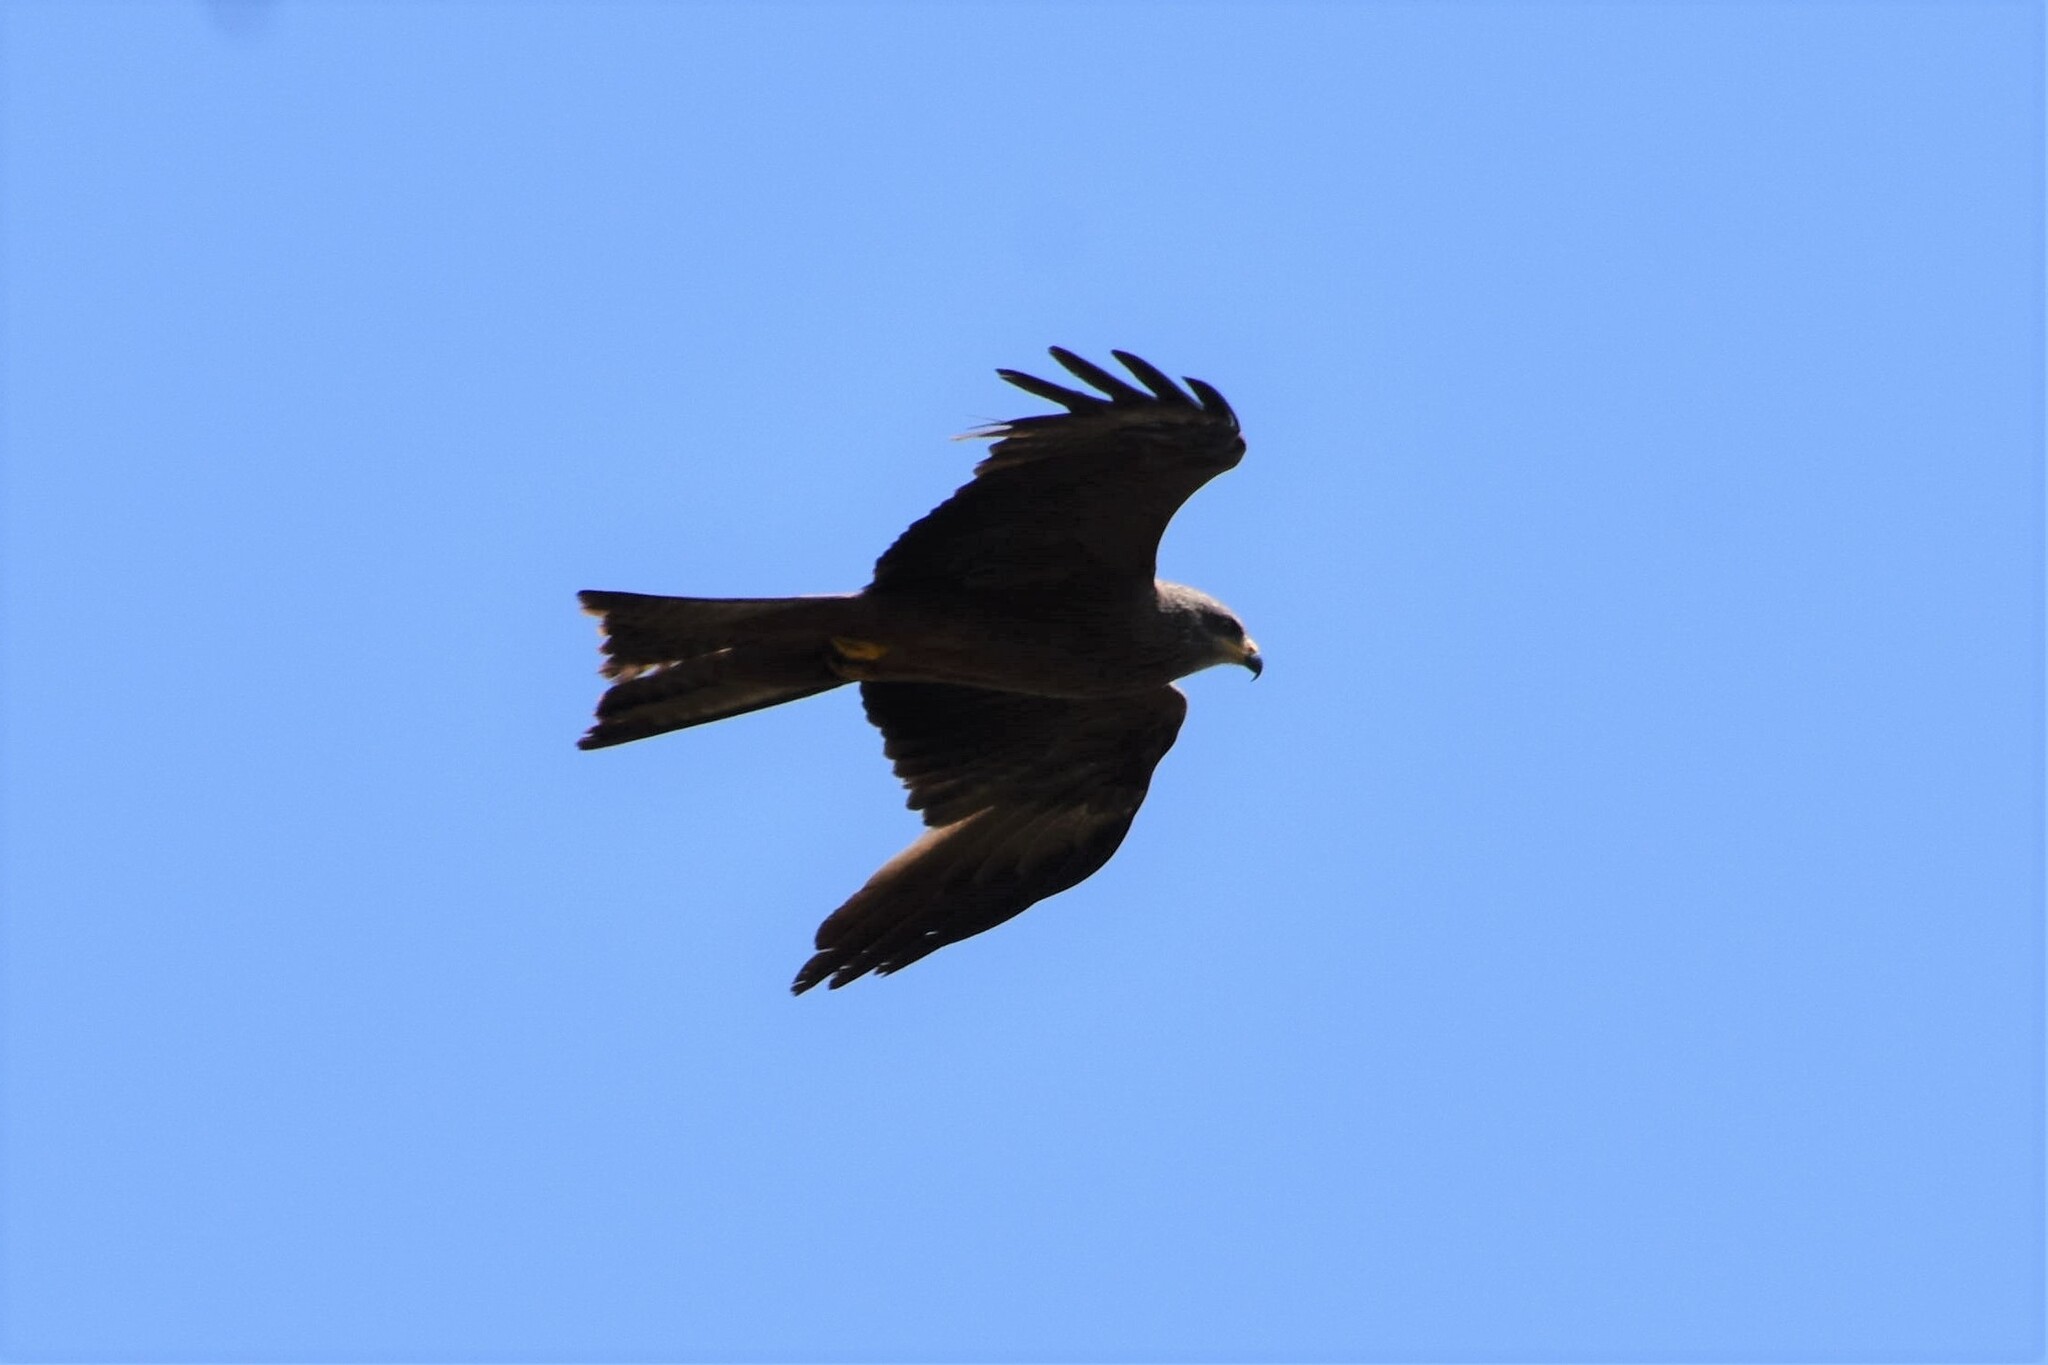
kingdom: Animalia
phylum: Chordata
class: Aves
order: Accipitriformes
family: Accipitridae
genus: Milvus
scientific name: Milvus migrans
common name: Black kite
